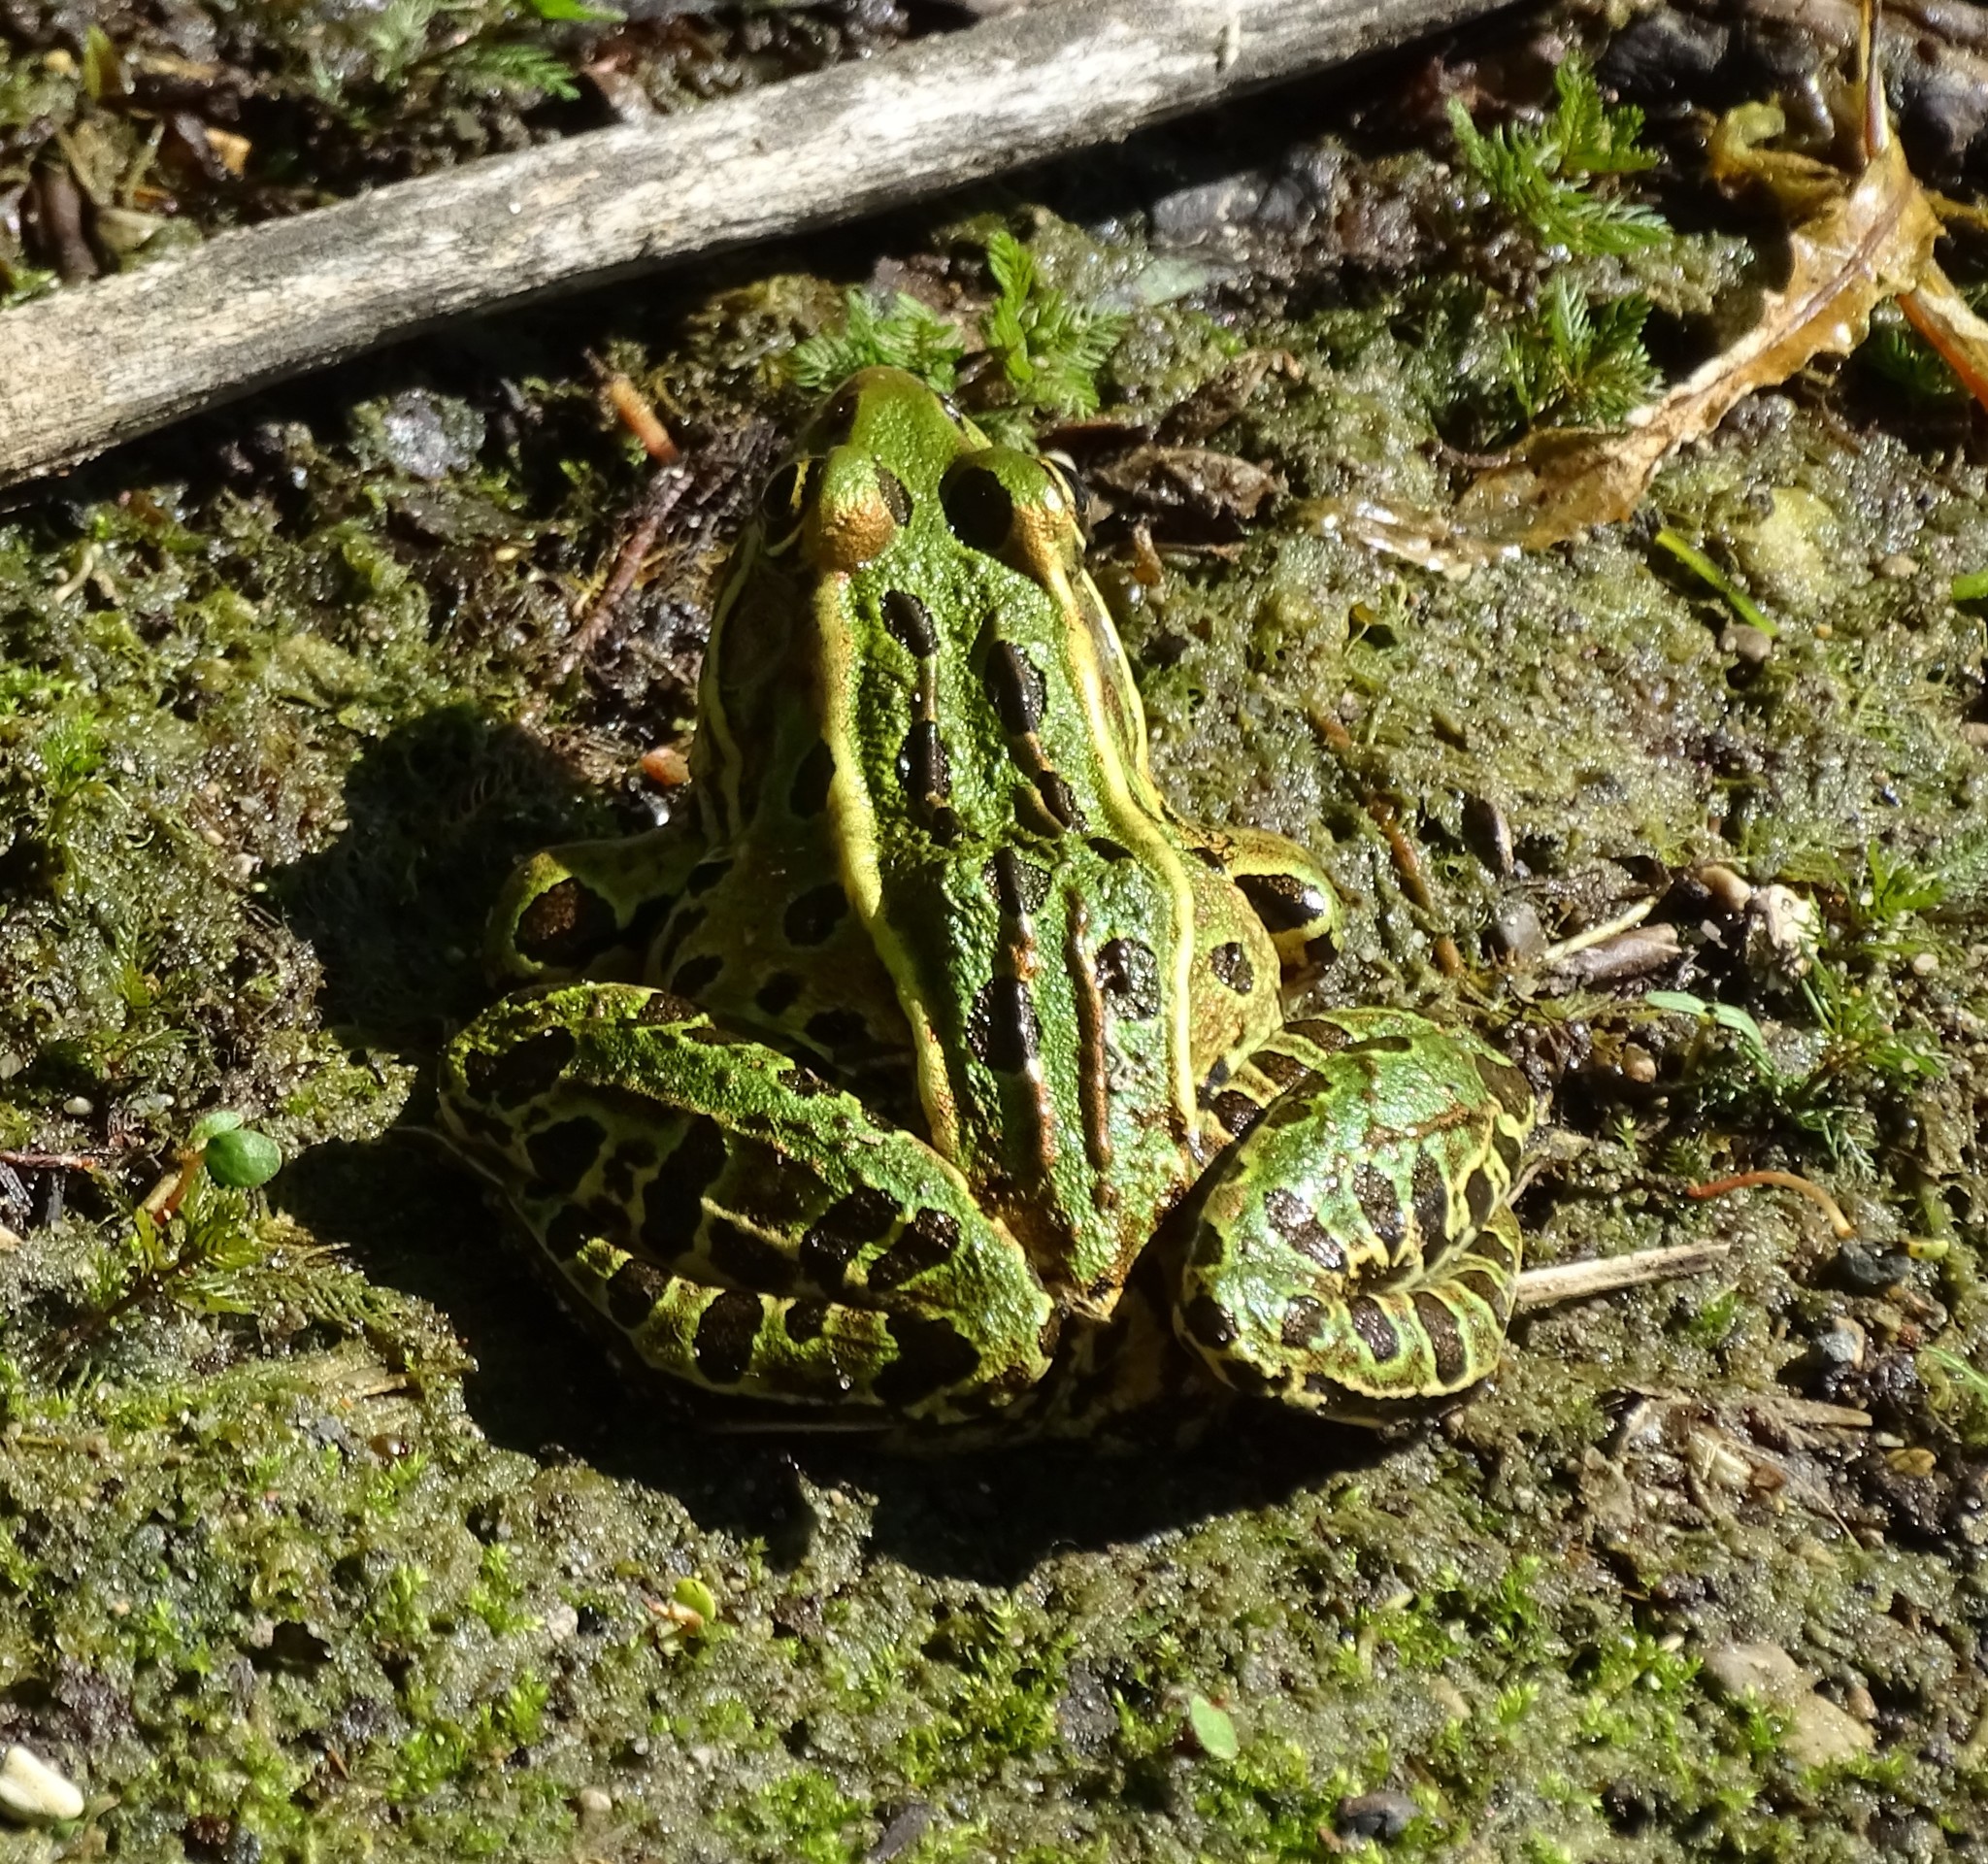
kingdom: Animalia
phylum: Chordata
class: Amphibia
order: Anura
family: Ranidae
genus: Lithobates
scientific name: Lithobates pipiens
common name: Northern leopard frog
